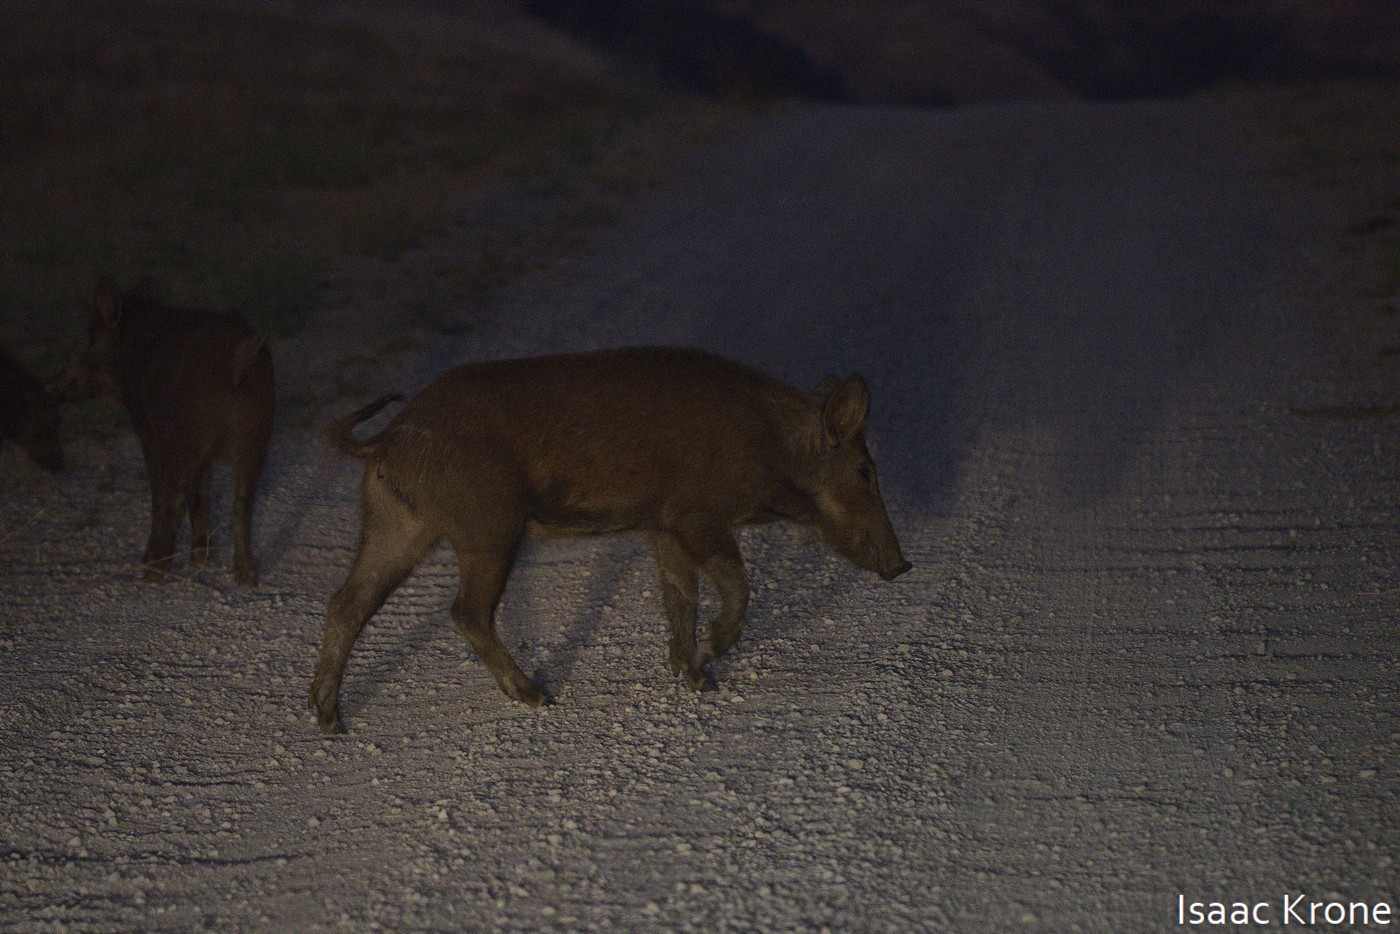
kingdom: Animalia
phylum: Chordata
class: Mammalia
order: Artiodactyla
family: Suidae
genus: Sus
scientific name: Sus scrofa
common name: Wild boar
